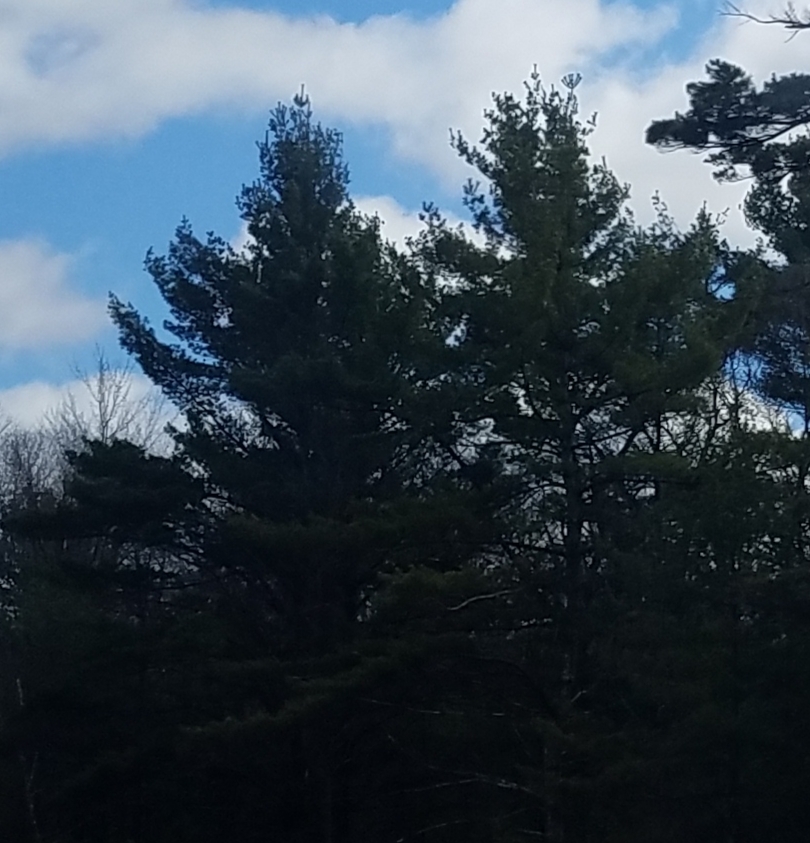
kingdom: Plantae
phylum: Tracheophyta
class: Pinopsida
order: Pinales
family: Pinaceae
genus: Pinus
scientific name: Pinus strobus
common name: Weymouth pine
